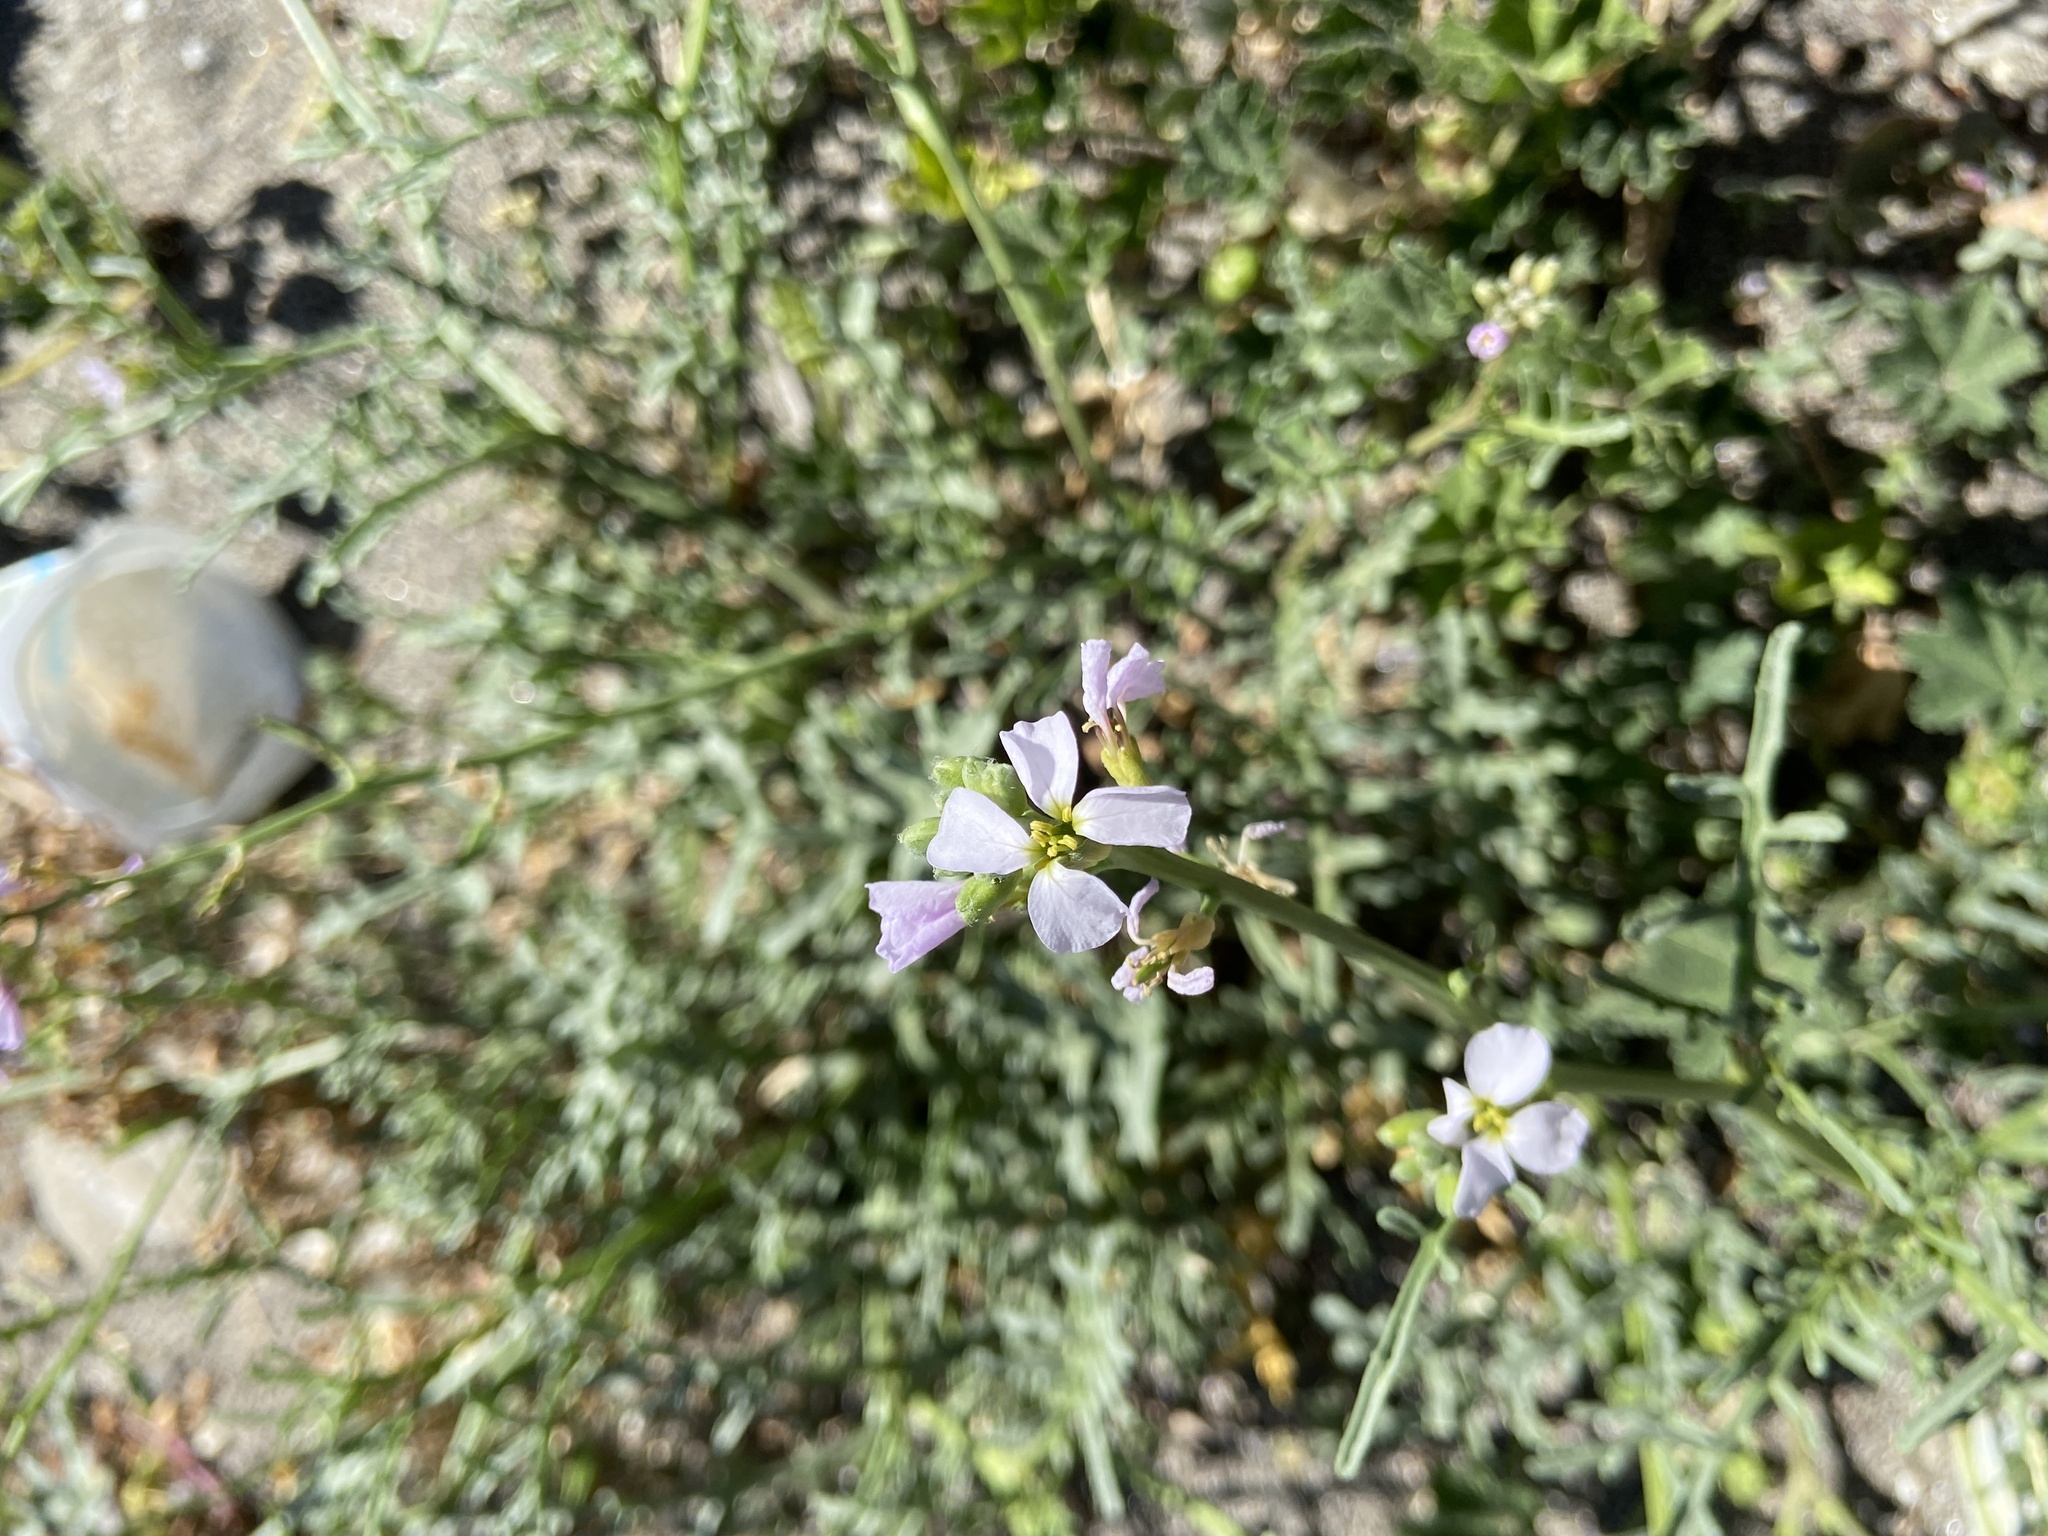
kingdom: Plantae
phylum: Tracheophyta
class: Magnoliopsida
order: Brassicales
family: Brassicaceae
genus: Cakile
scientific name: Cakile maritima
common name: Sea rocket
